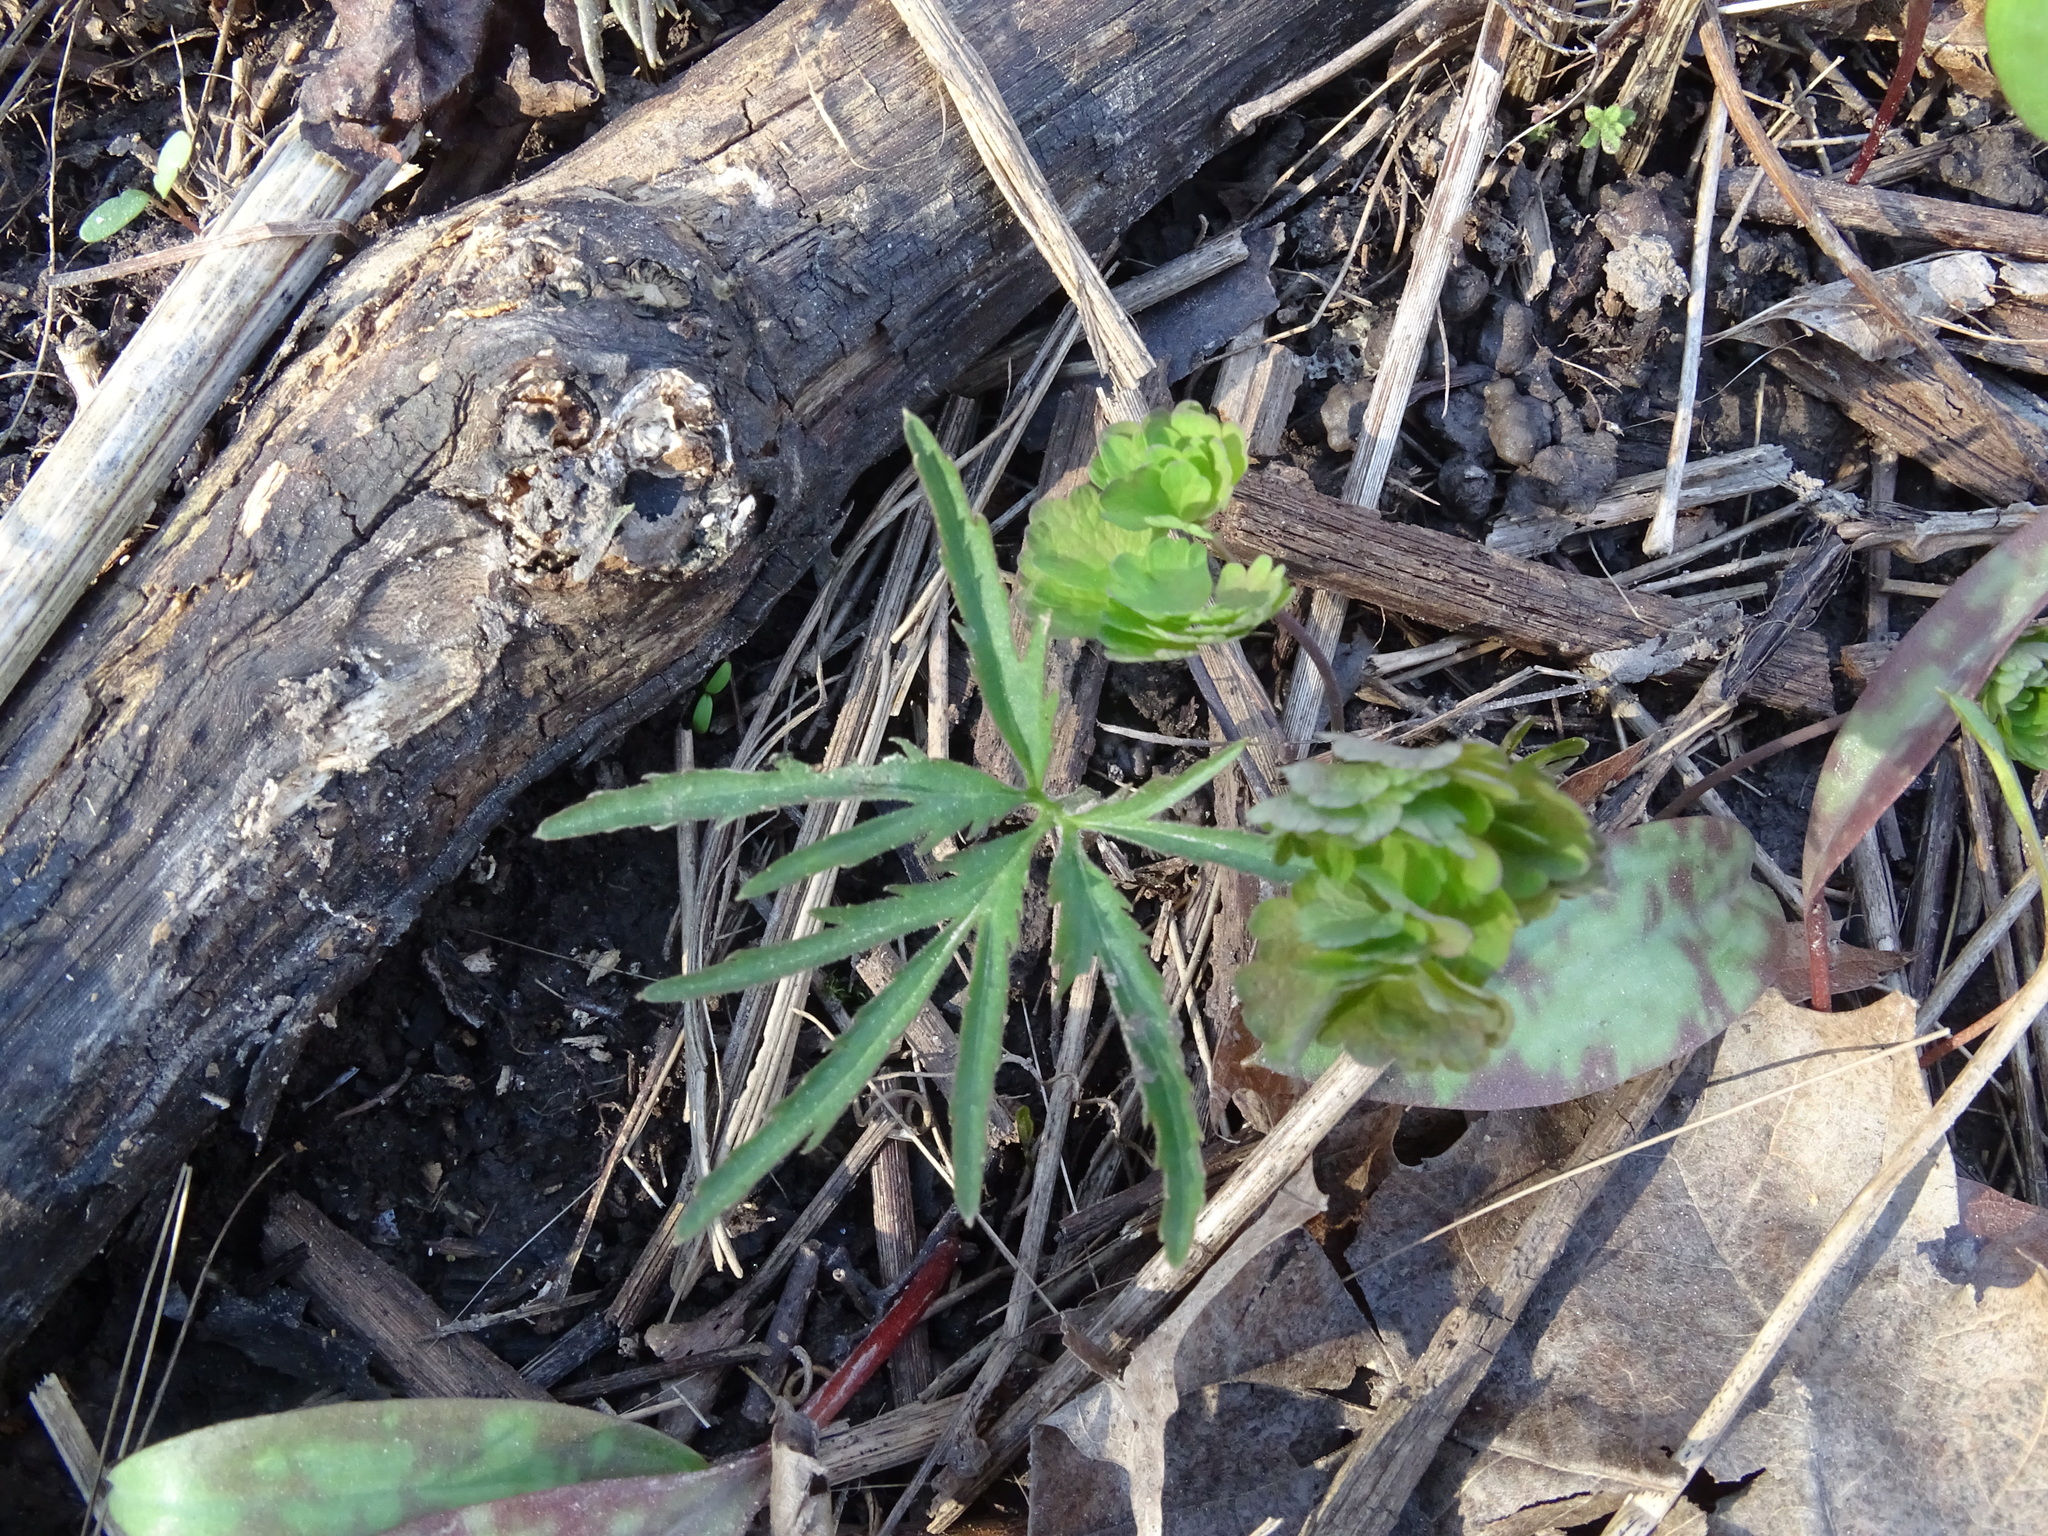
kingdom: Plantae
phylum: Tracheophyta
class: Magnoliopsida
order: Brassicales
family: Brassicaceae
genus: Cardamine
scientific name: Cardamine concatenata
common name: Cut-leaf toothcup
